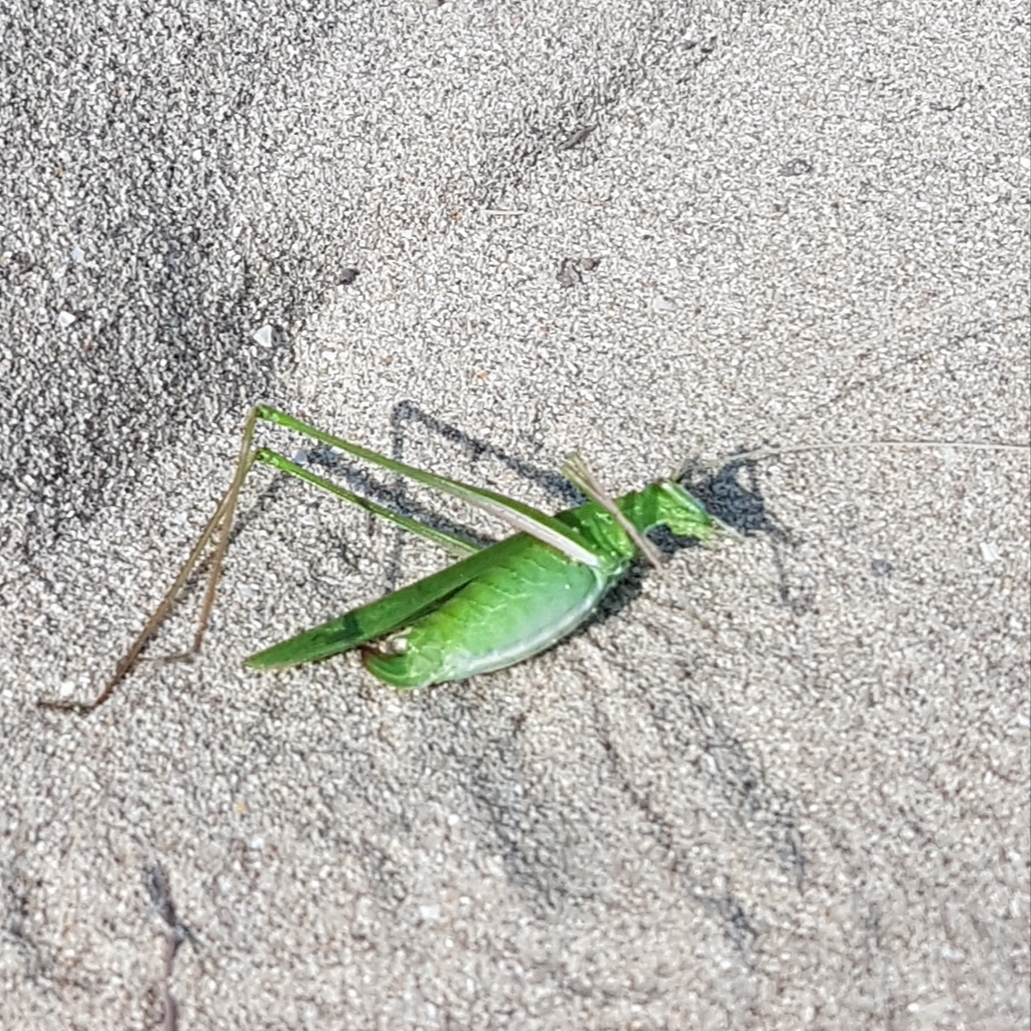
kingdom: Animalia
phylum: Arthropoda
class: Insecta
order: Orthoptera
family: Tettigoniidae
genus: Tylopsis
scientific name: Tylopsis lilifolia
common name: Lily bush-cricket
